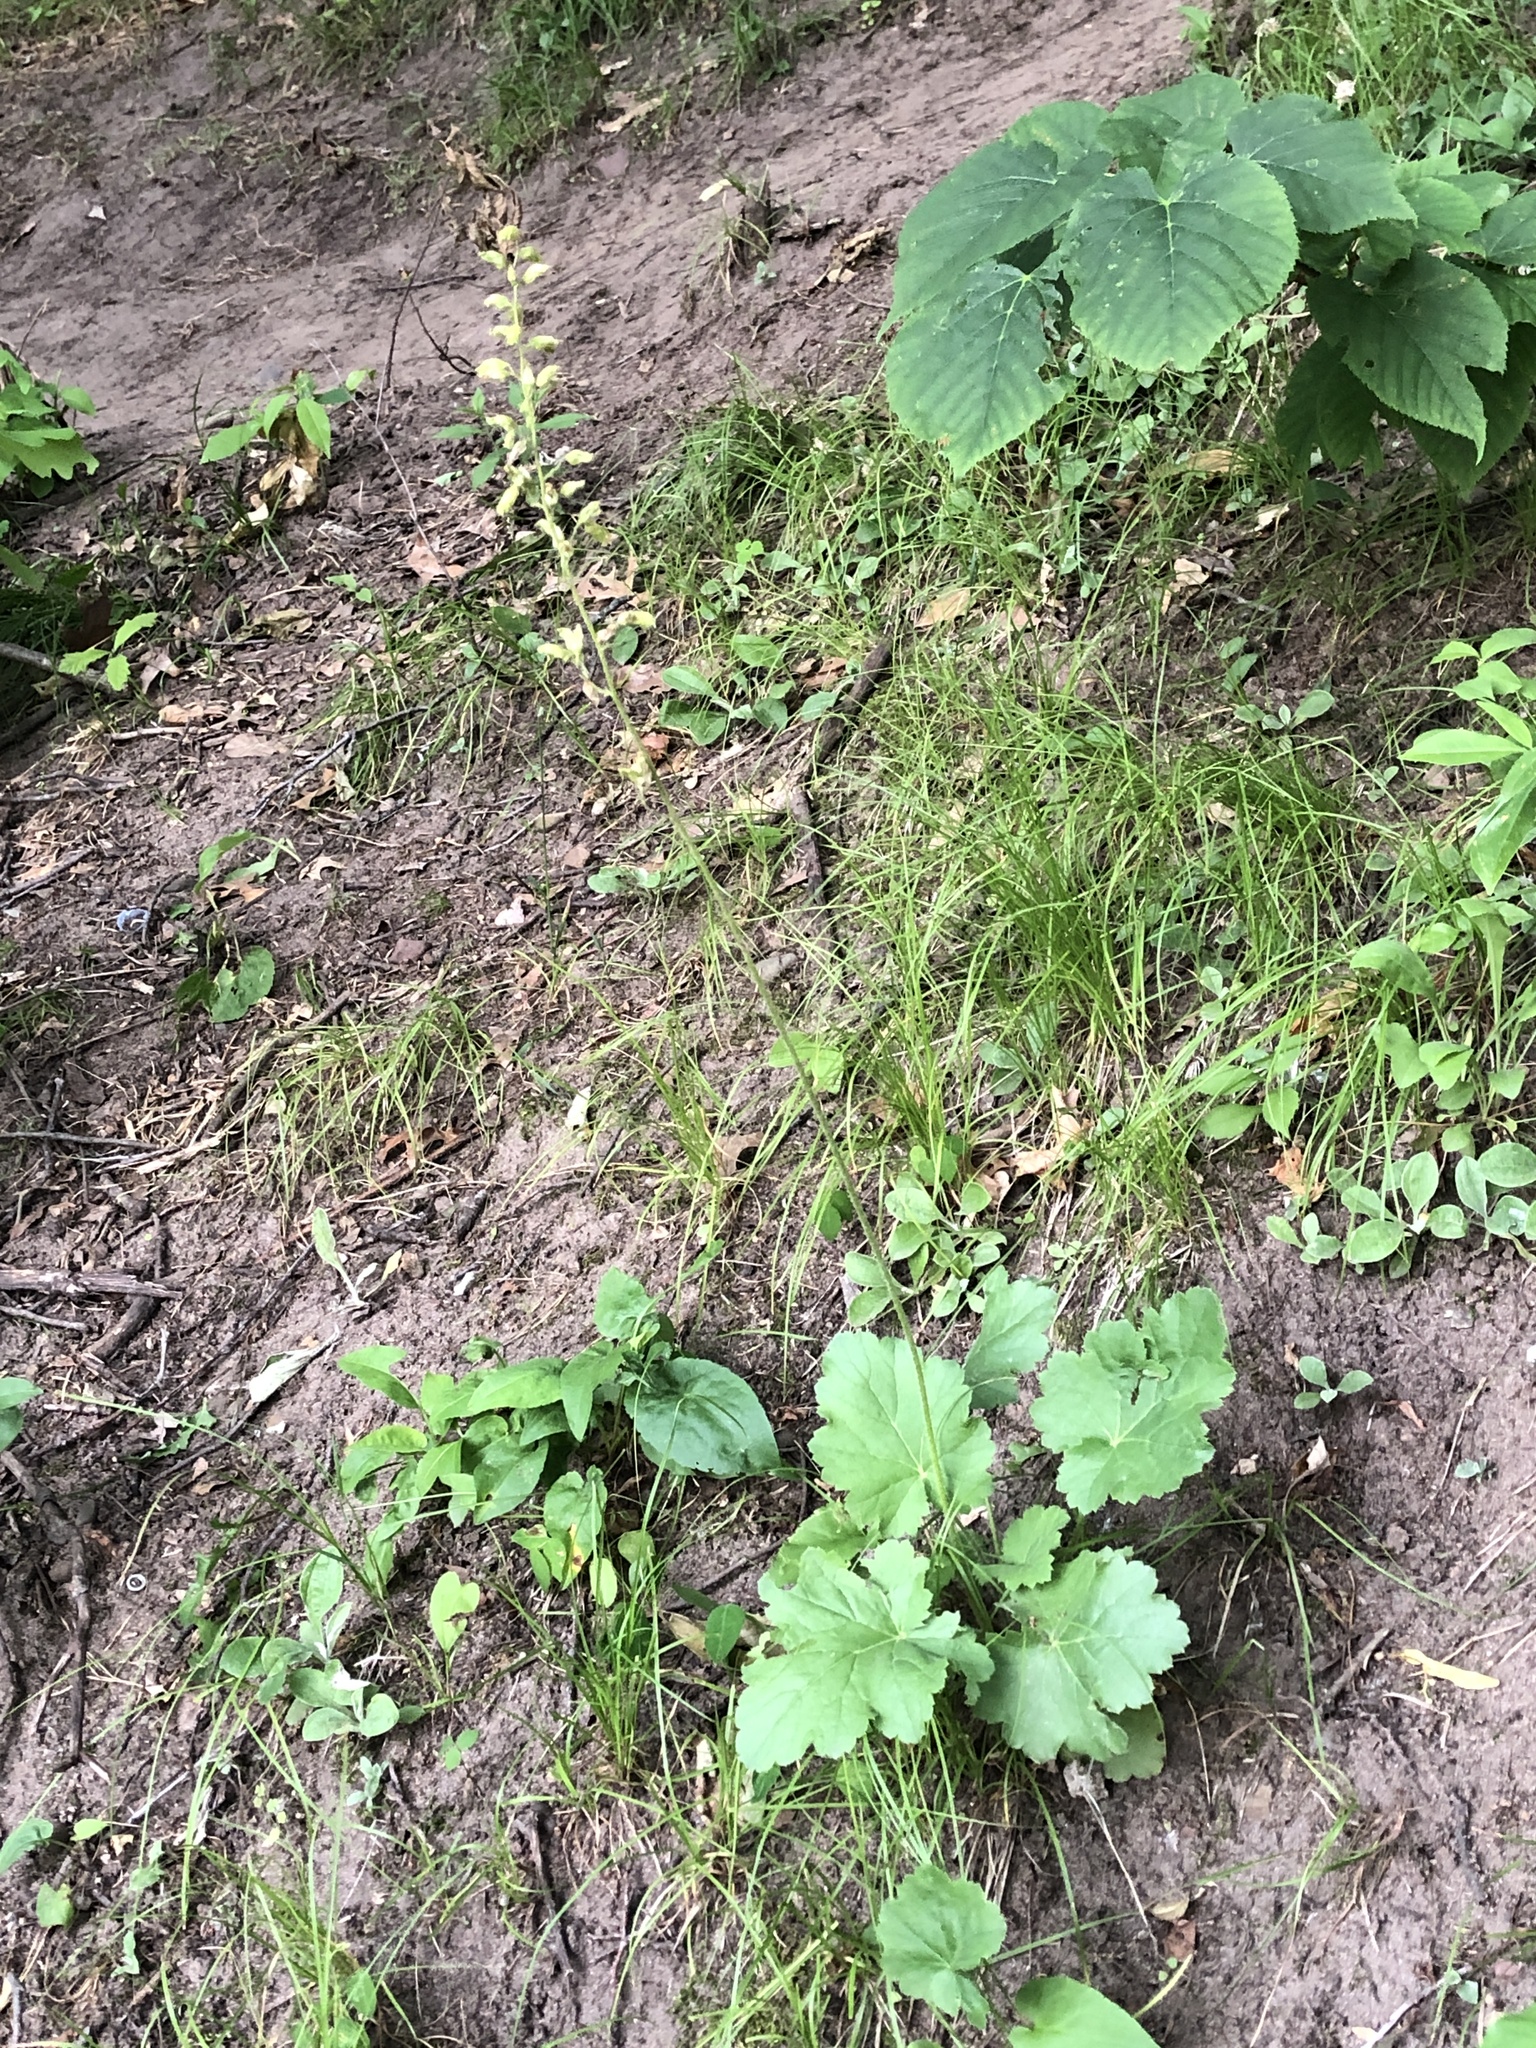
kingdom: Plantae
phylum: Tracheophyta
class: Magnoliopsida
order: Saxifragales
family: Saxifragaceae
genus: Heuchera
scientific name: Heuchera richardsonii
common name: Richardson's alumroot
